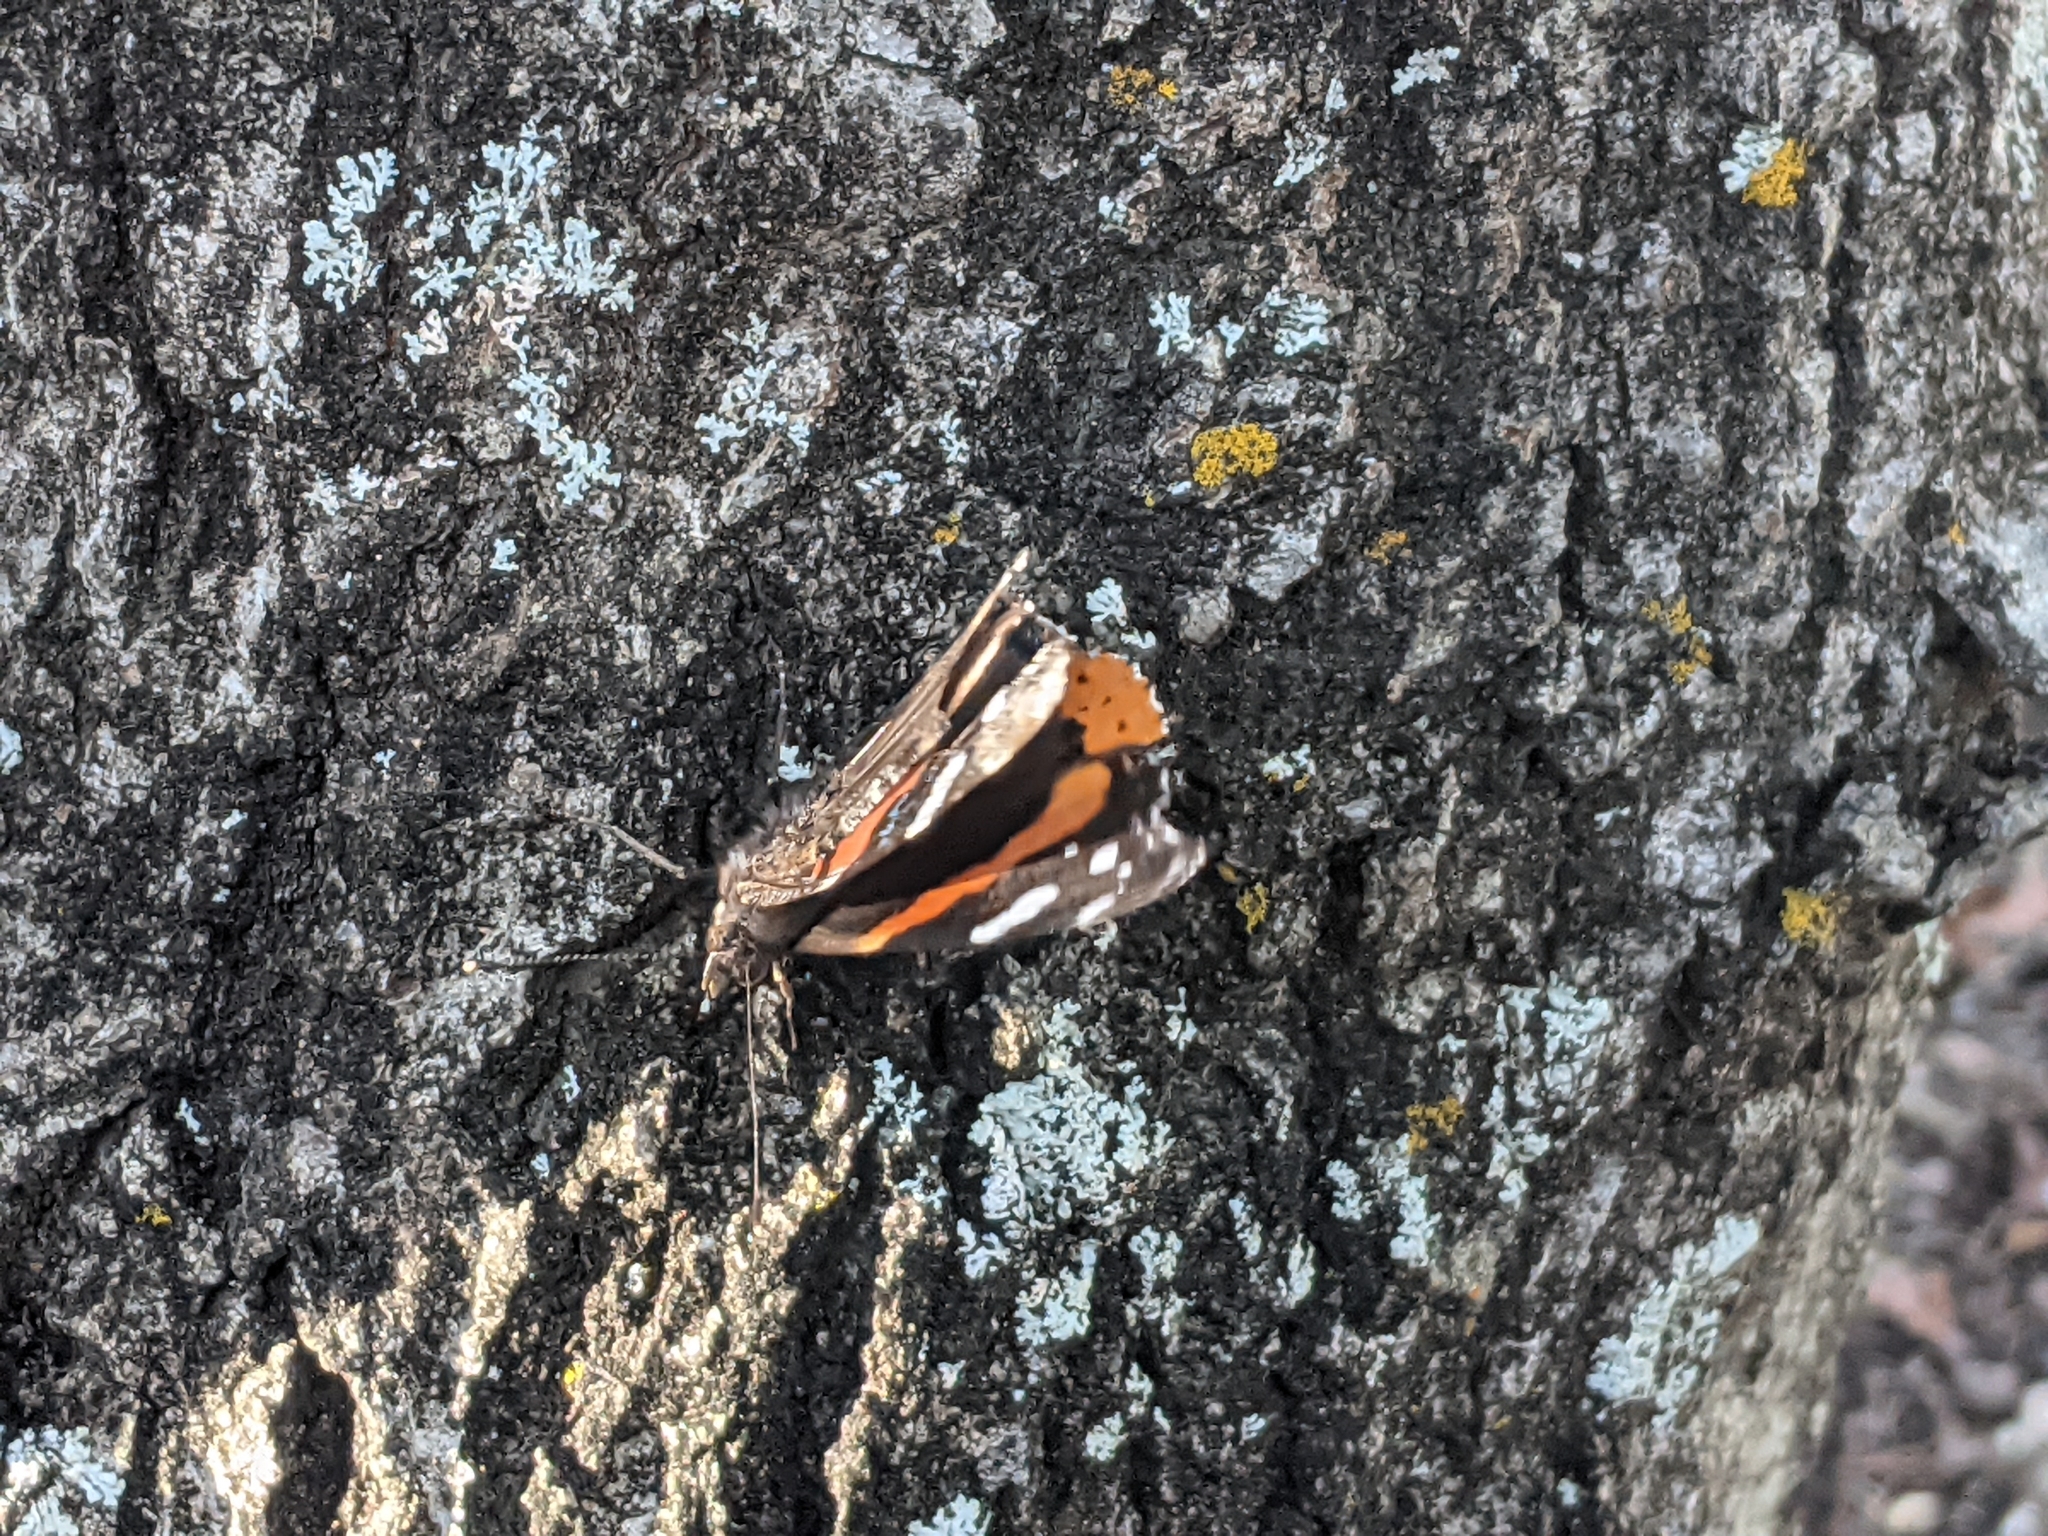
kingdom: Animalia
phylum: Arthropoda
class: Insecta
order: Lepidoptera
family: Nymphalidae
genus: Vanessa
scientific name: Vanessa atalanta
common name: Red admiral
